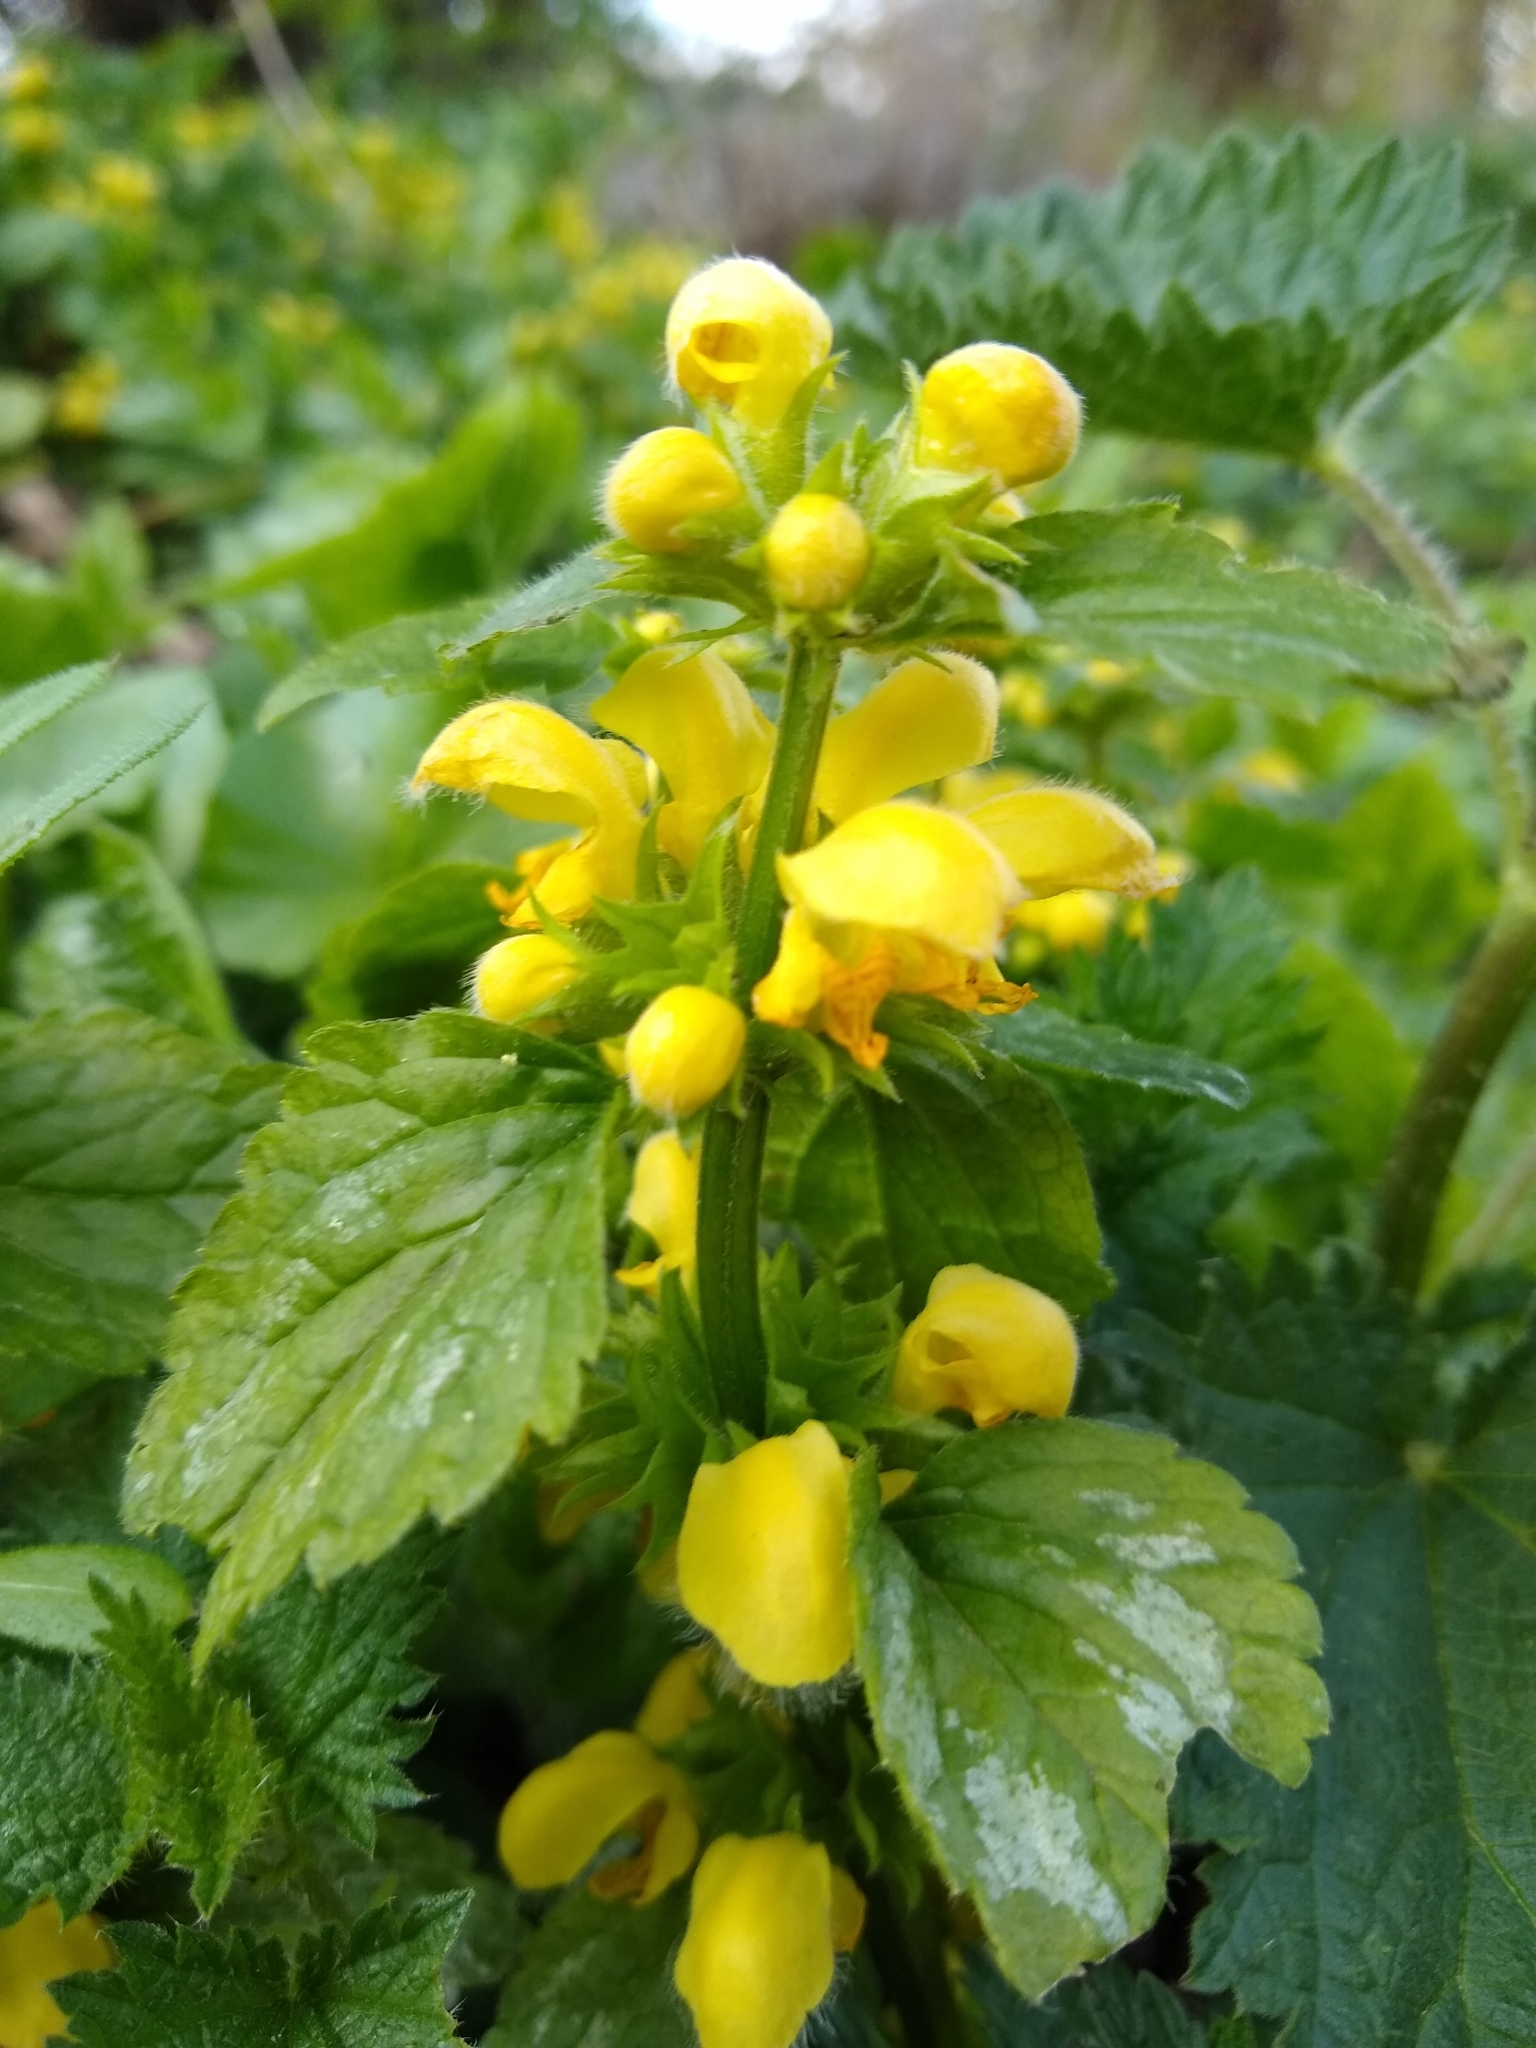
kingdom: Plantae
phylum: Tracheophyta
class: Magnoliopsida
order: Lamiales
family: Lamiaceae
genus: Lamium
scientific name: Lamium galeobdolon
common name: Yellow archangel
